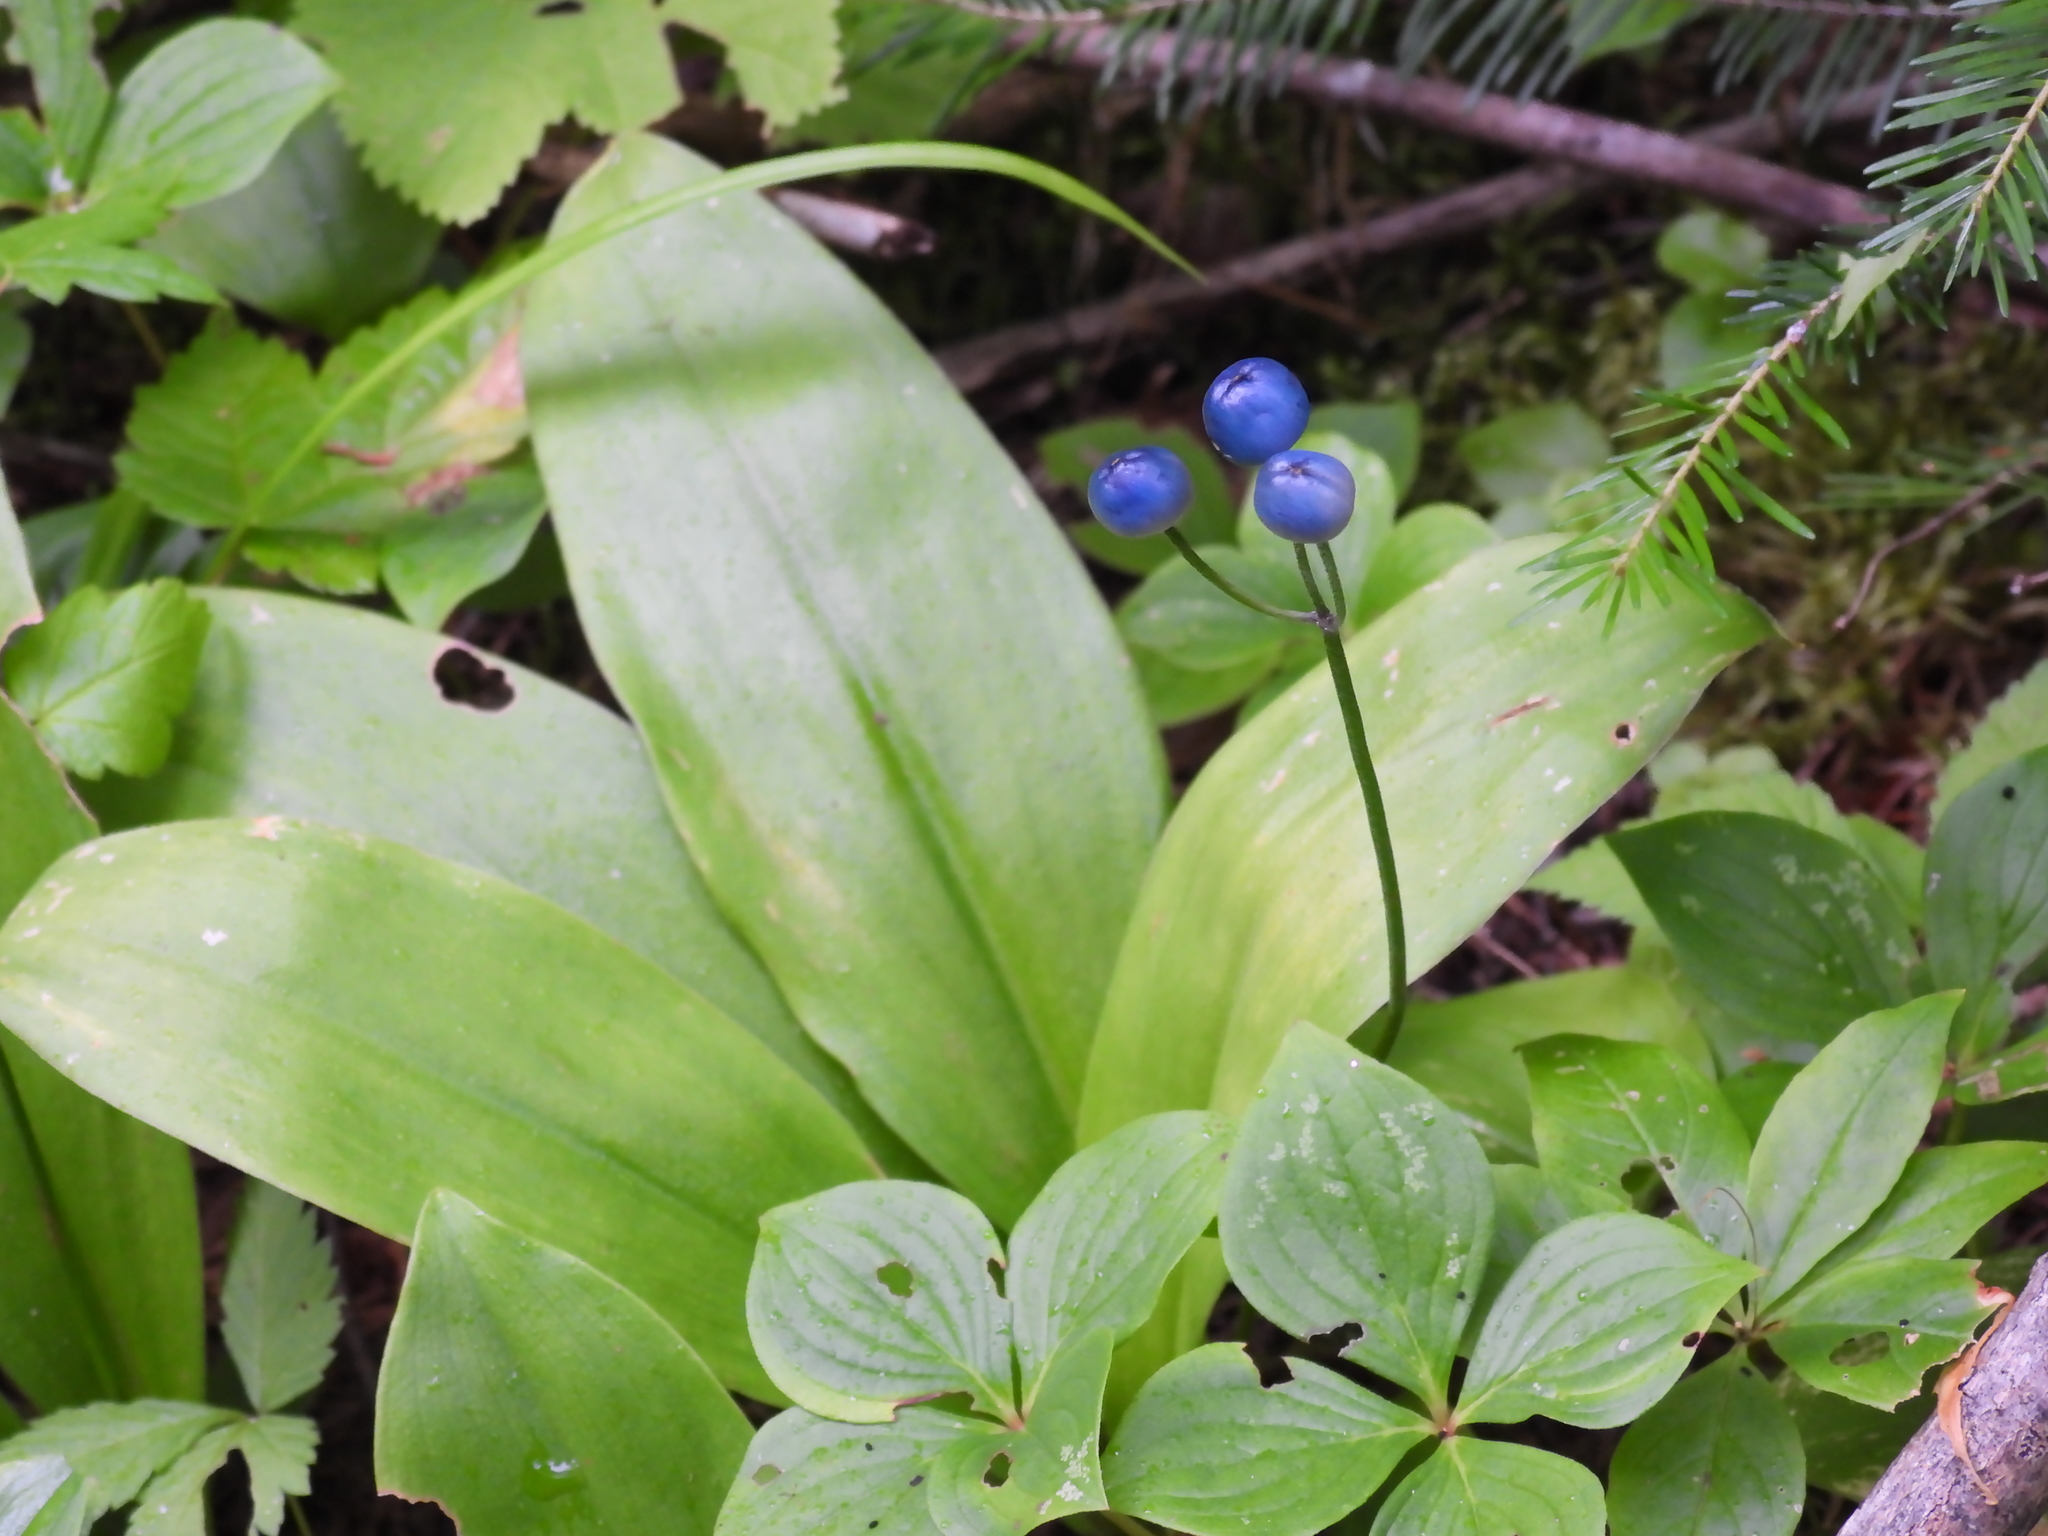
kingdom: Plantae
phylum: Tracheophyta
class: Liliopsida
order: Liliales
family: Liliaceae
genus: Clintonia
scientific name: Clintonia borealis
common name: Yellow clintonia
